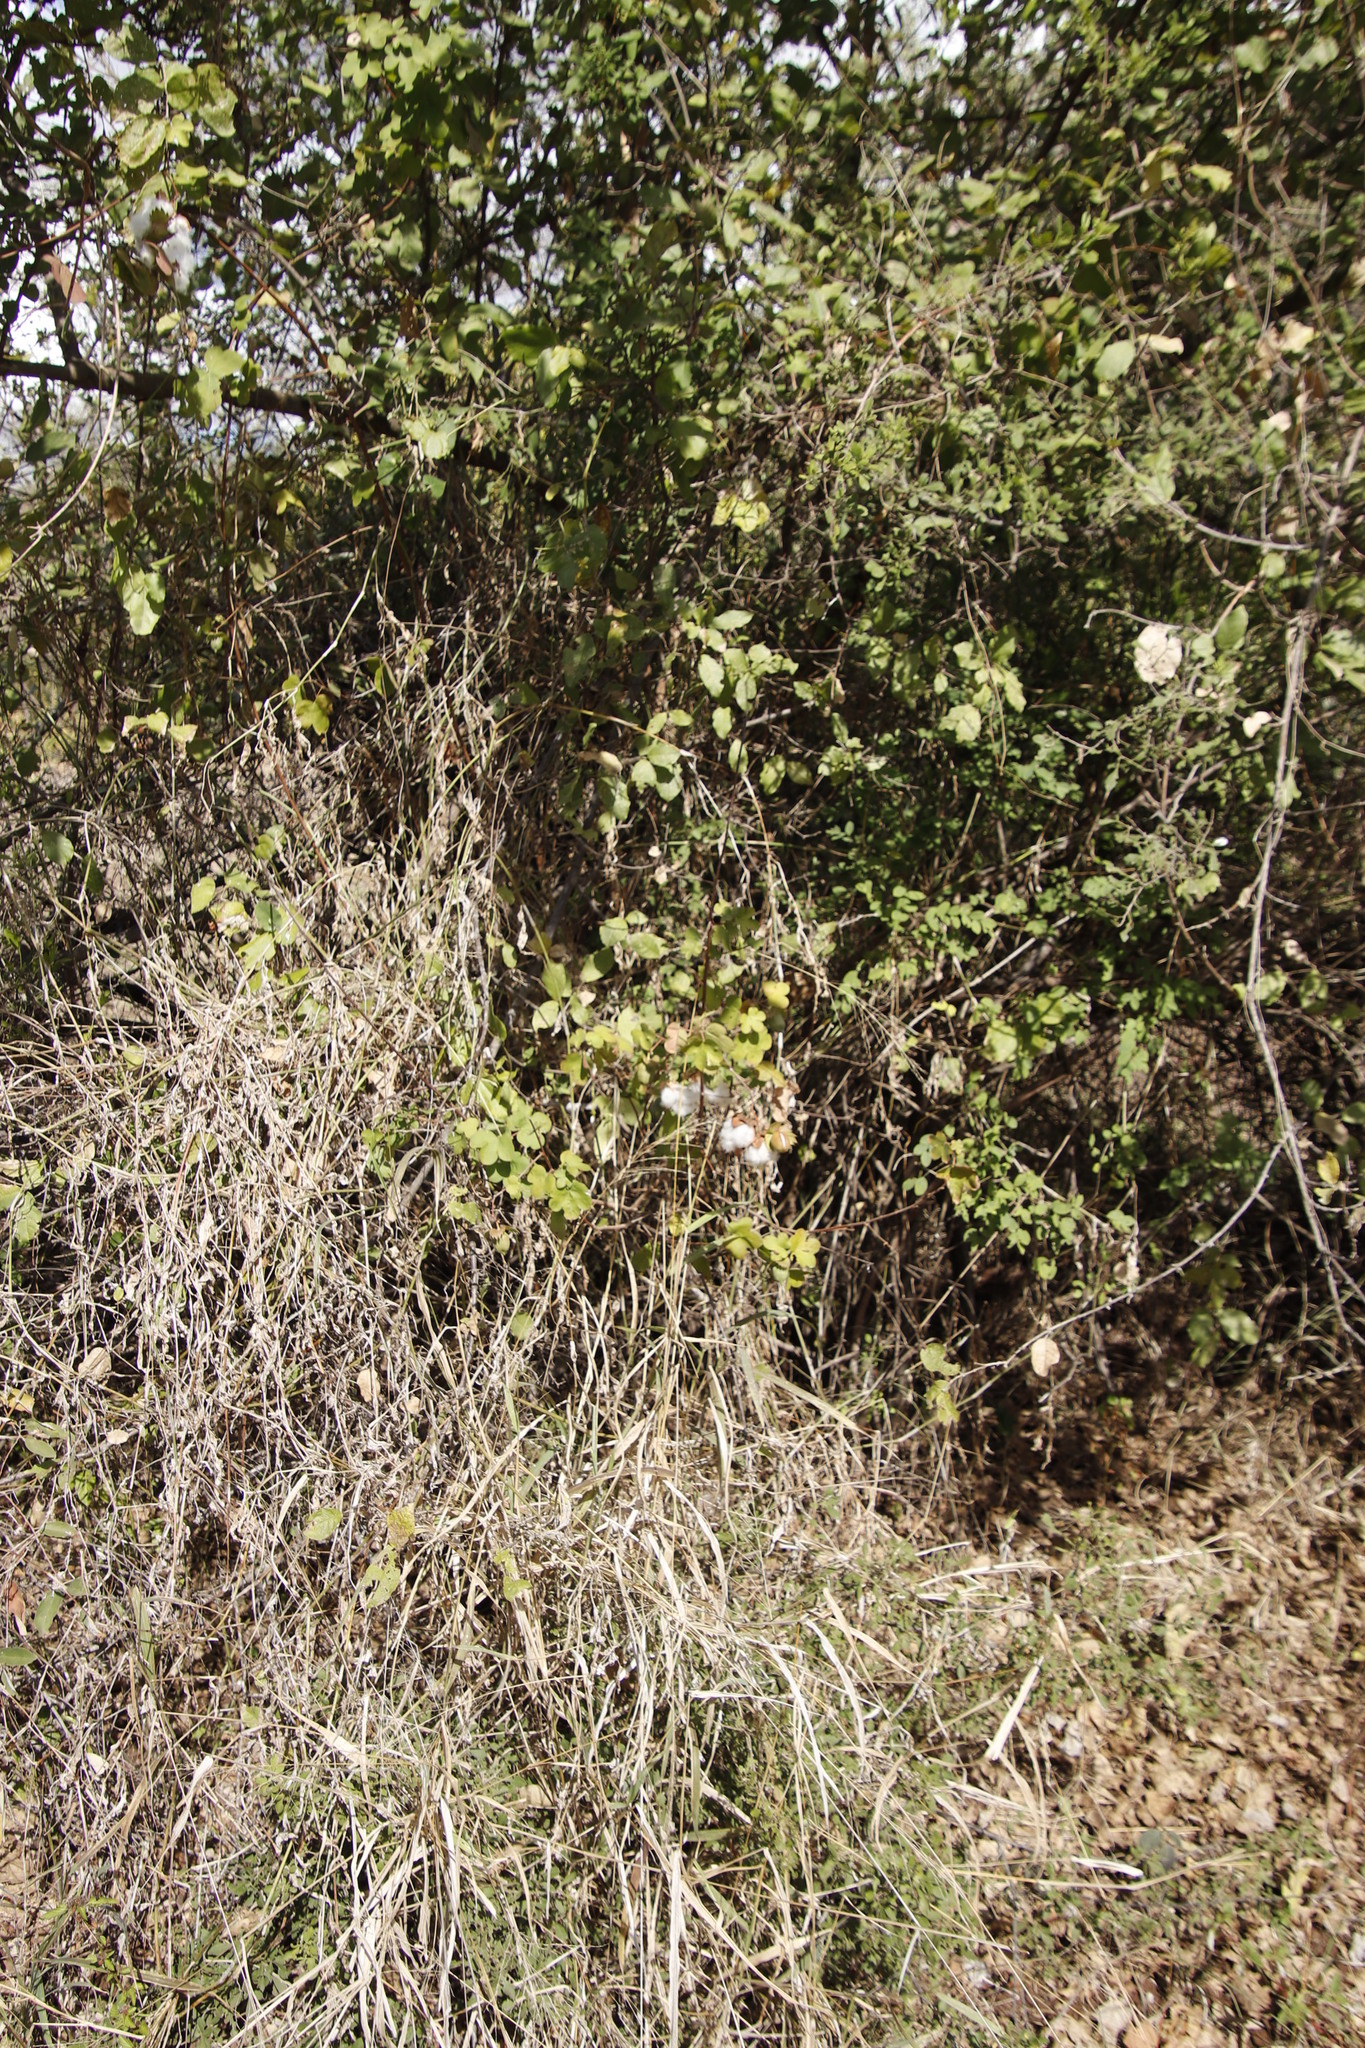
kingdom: Plantae
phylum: Tracheophyta
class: Magnoliopsida
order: Malvales
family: Malvaceae
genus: Gossypium
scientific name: Gossypium herbaceum
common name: Levant cotton
